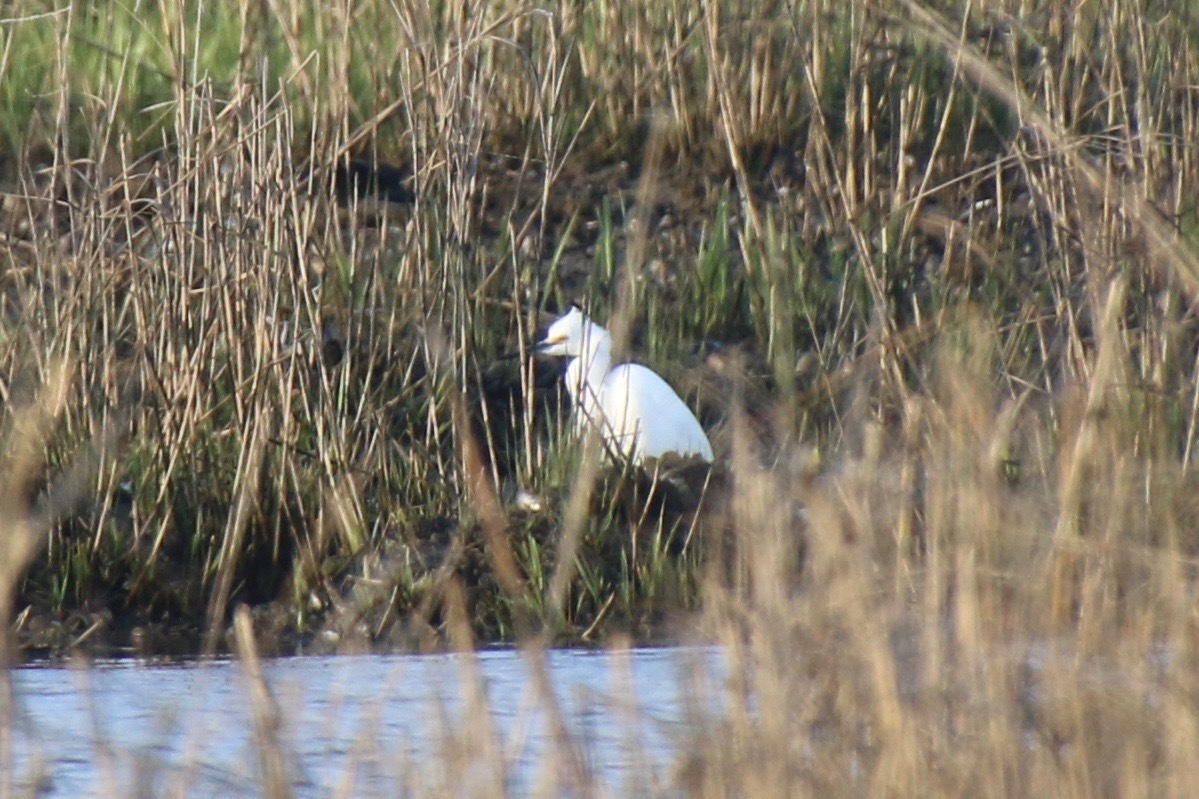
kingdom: Animalia
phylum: Chordata
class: Aves
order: Pelecaniformes
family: Ardeidae
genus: Egretta
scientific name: Egretta thula
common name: Snowy egret
